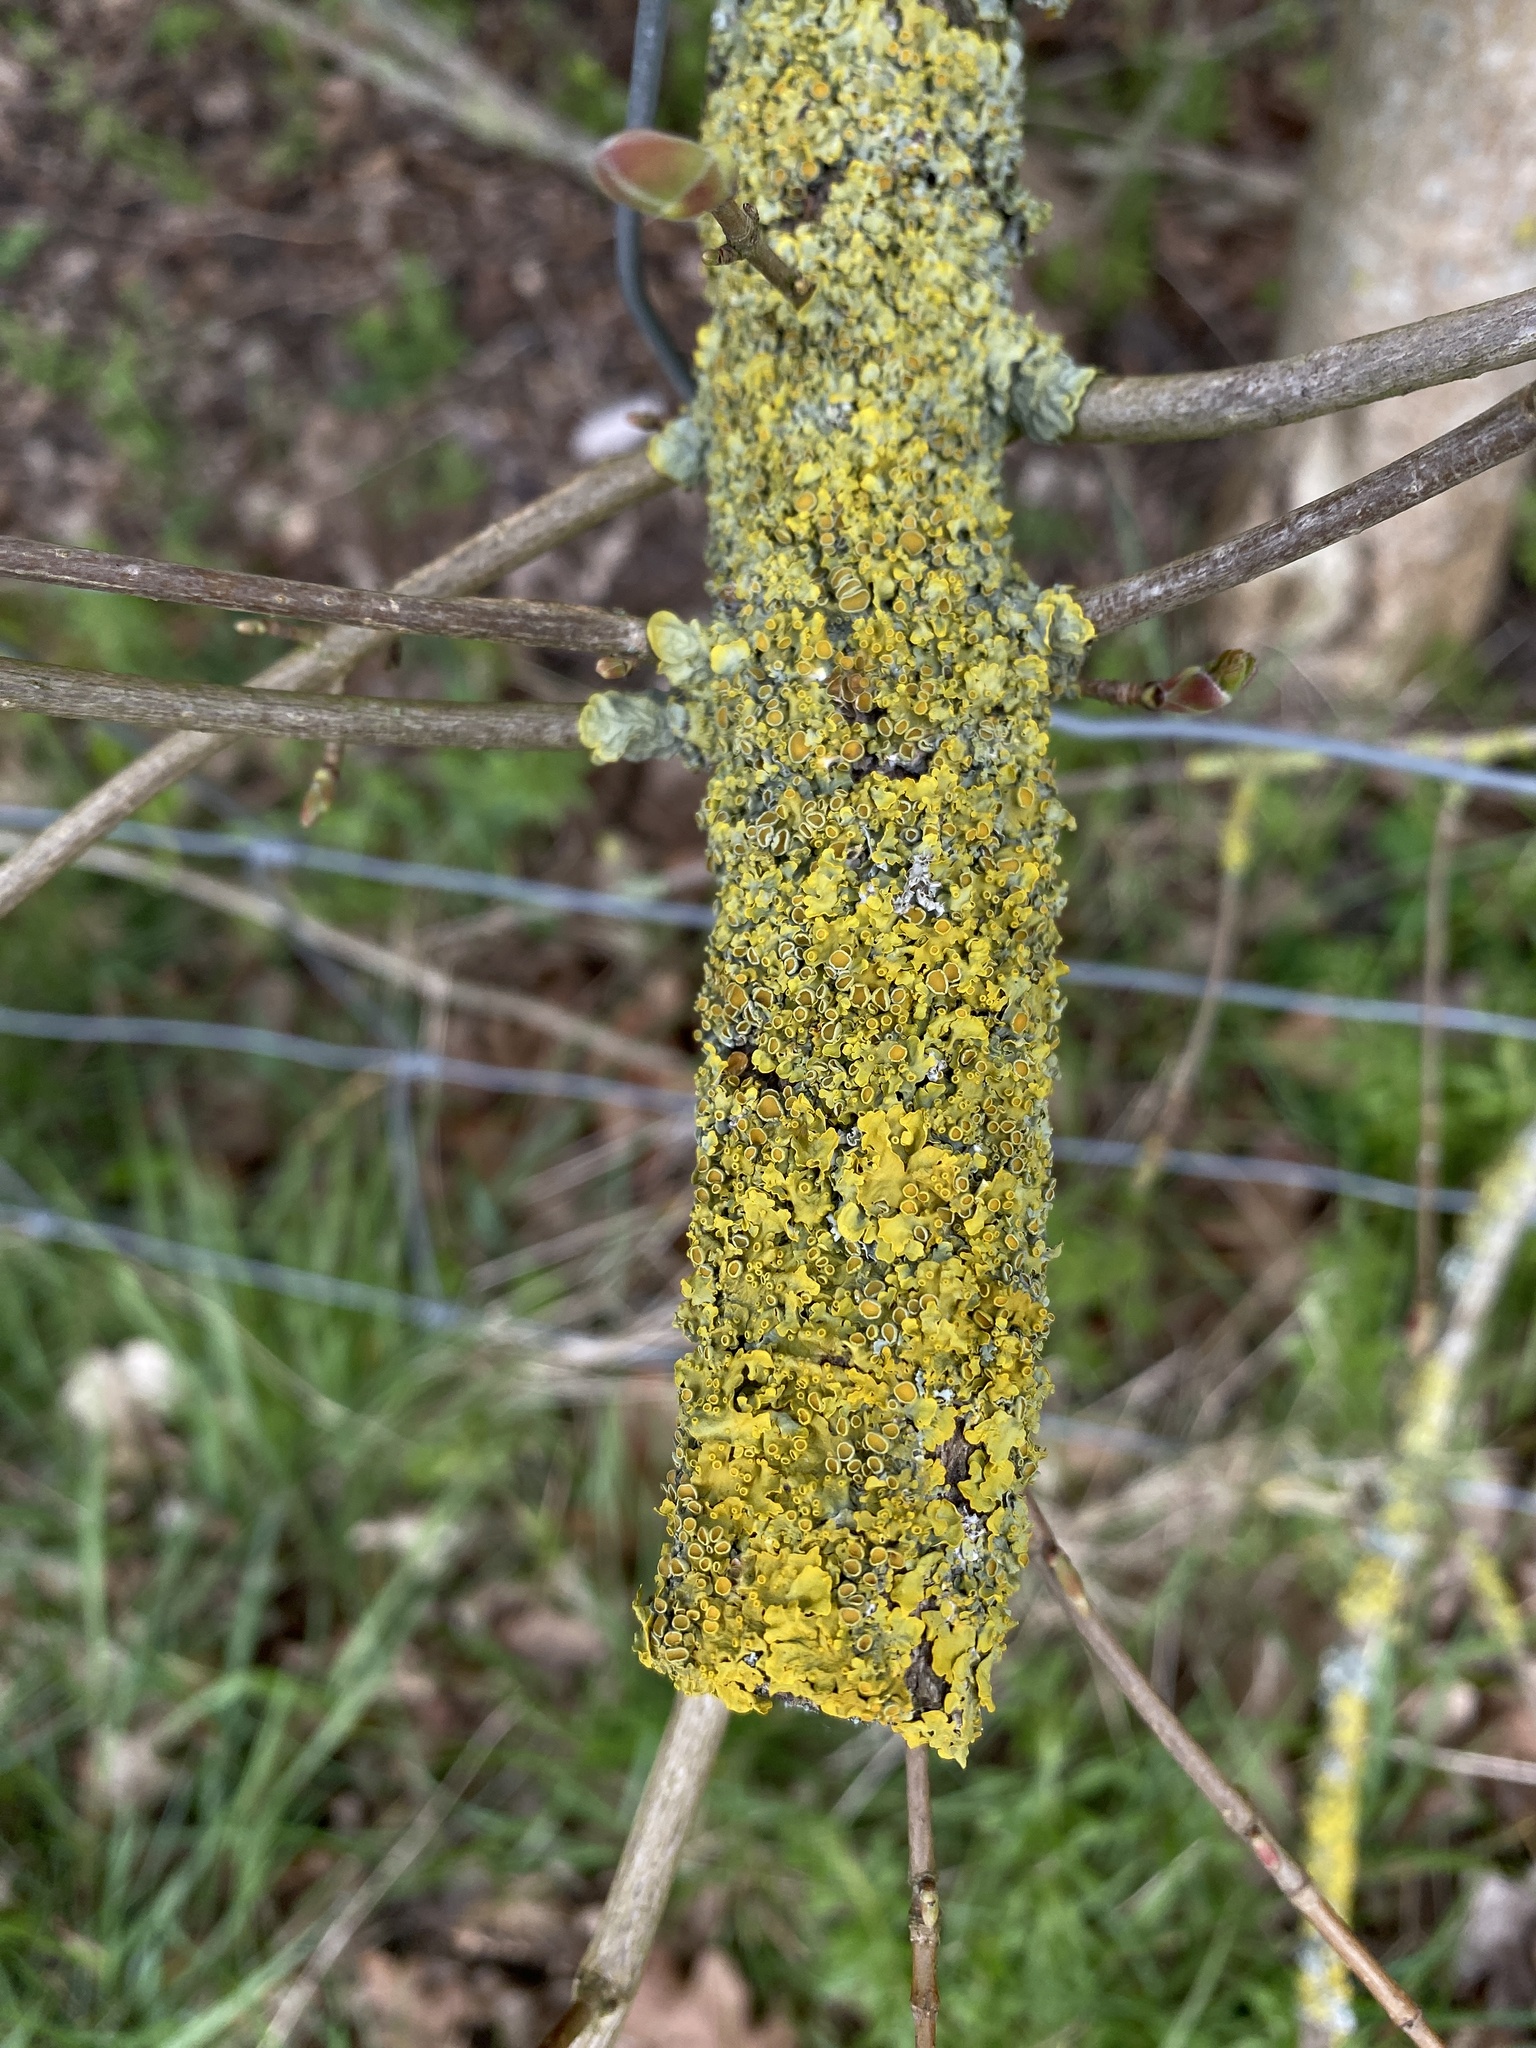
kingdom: Fungi
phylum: Ascomycota
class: Lecanoromycetes
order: Teloschistales
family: Teloschistaceae
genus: Xanthoria
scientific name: Xanthoria parietina
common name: Common orange lichen
